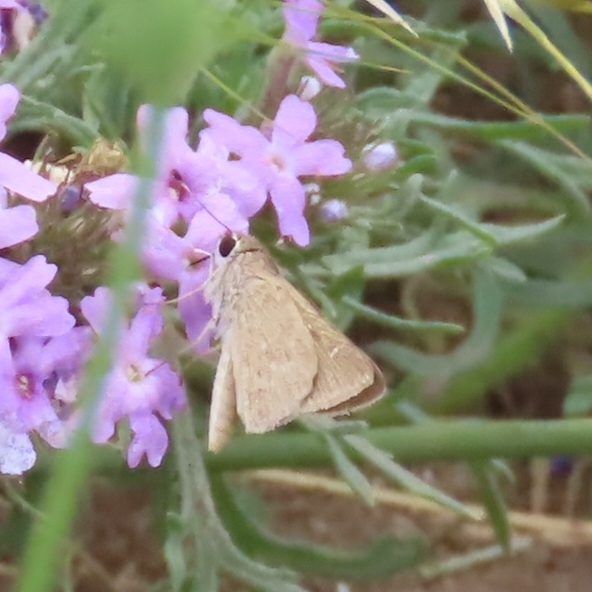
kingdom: Animalia
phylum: Arthropoda
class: Insecta
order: Lepidoptera
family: Hesperiidae
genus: Lerodea
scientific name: Lerodea eufala
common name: Eufala skipper
